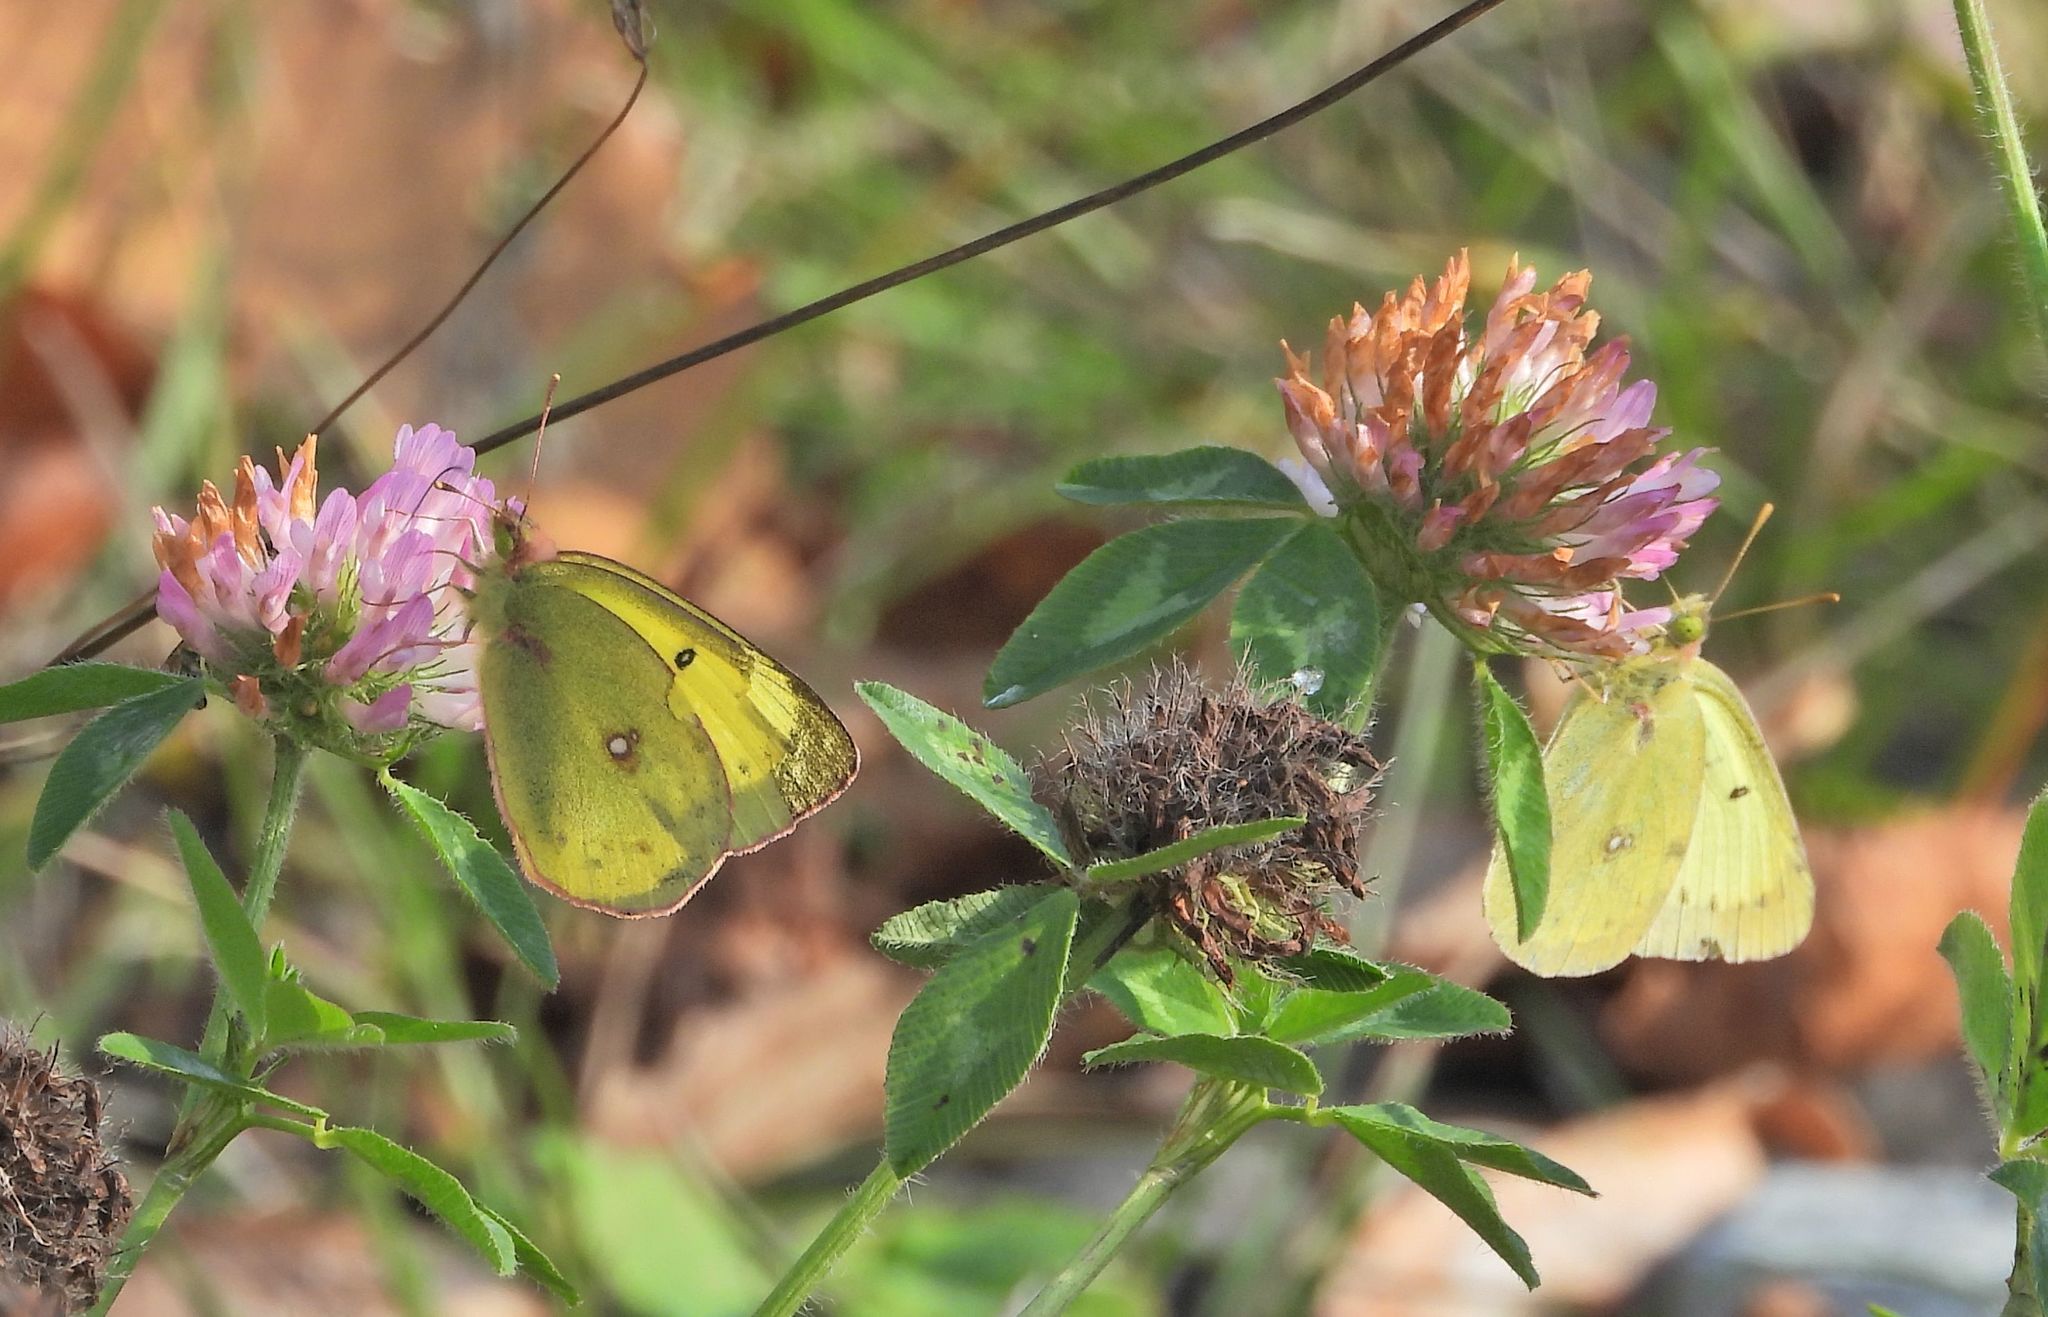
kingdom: Animalia
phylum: Arthropoda
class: Insecta
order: Lepidoptera
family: Pieridae
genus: Colias
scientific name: Colias philodice
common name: Clouded sulphur
